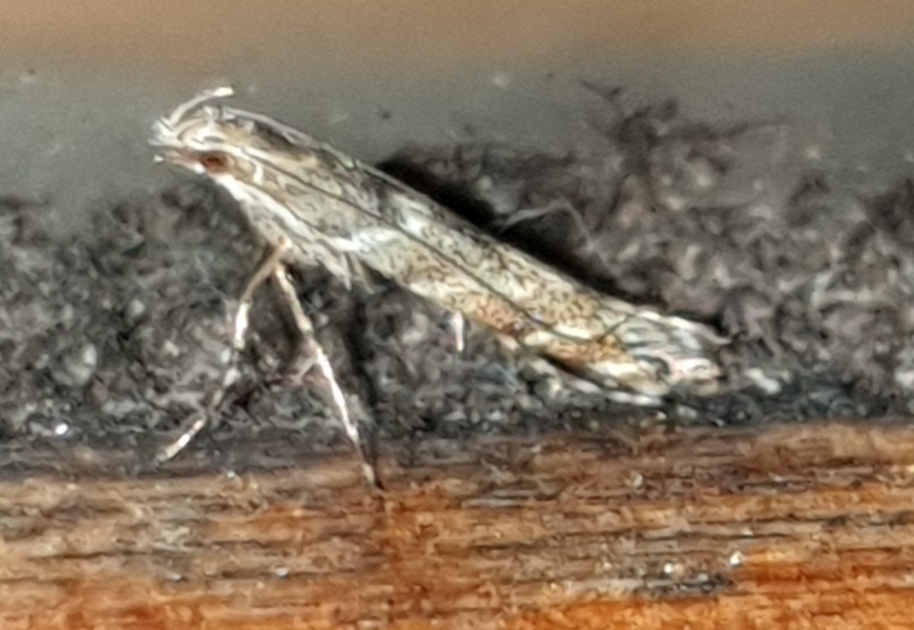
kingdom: Animalia
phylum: Arthropoda
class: Insecta
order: Lepidoptera
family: Gracillariidae
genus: Acrocercops
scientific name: Acrocercops brongniardella
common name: Brown oak slender
